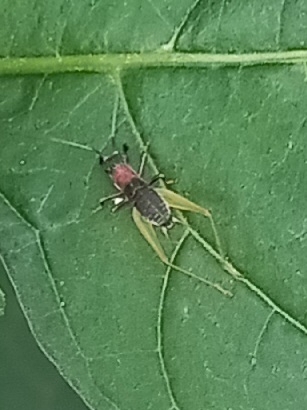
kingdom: Animalia
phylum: Arthropoda
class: Insecta
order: Orthoptera
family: Trigonidiidae
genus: Phyllopalpus
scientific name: Phyllopalpus pulchellus
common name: Handsome trig
